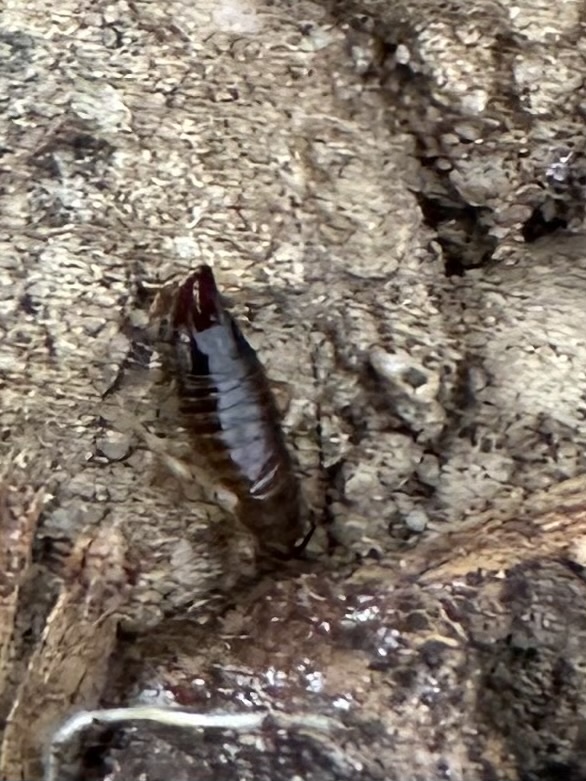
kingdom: Animalia
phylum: Arthropoda
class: Insecta
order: Dermaptera
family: Anisolabididae
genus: Euborellia
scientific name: Euborellia annulipes
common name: Ringlegged earwig
